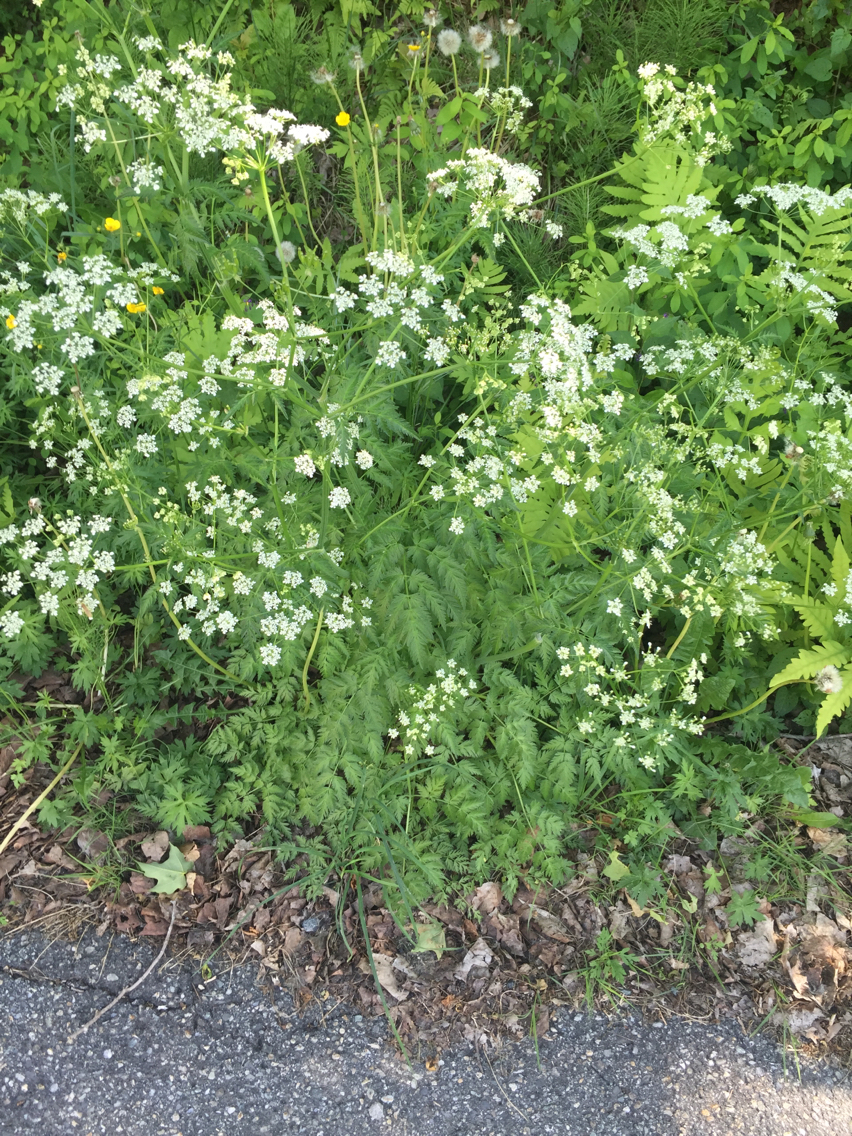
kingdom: Plantae
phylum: Tracheophyta
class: Magnoliopsida
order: Apiales
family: Apiaceae
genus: Anthriscus
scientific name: Anthriscus sylvestris
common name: Cow parsley
